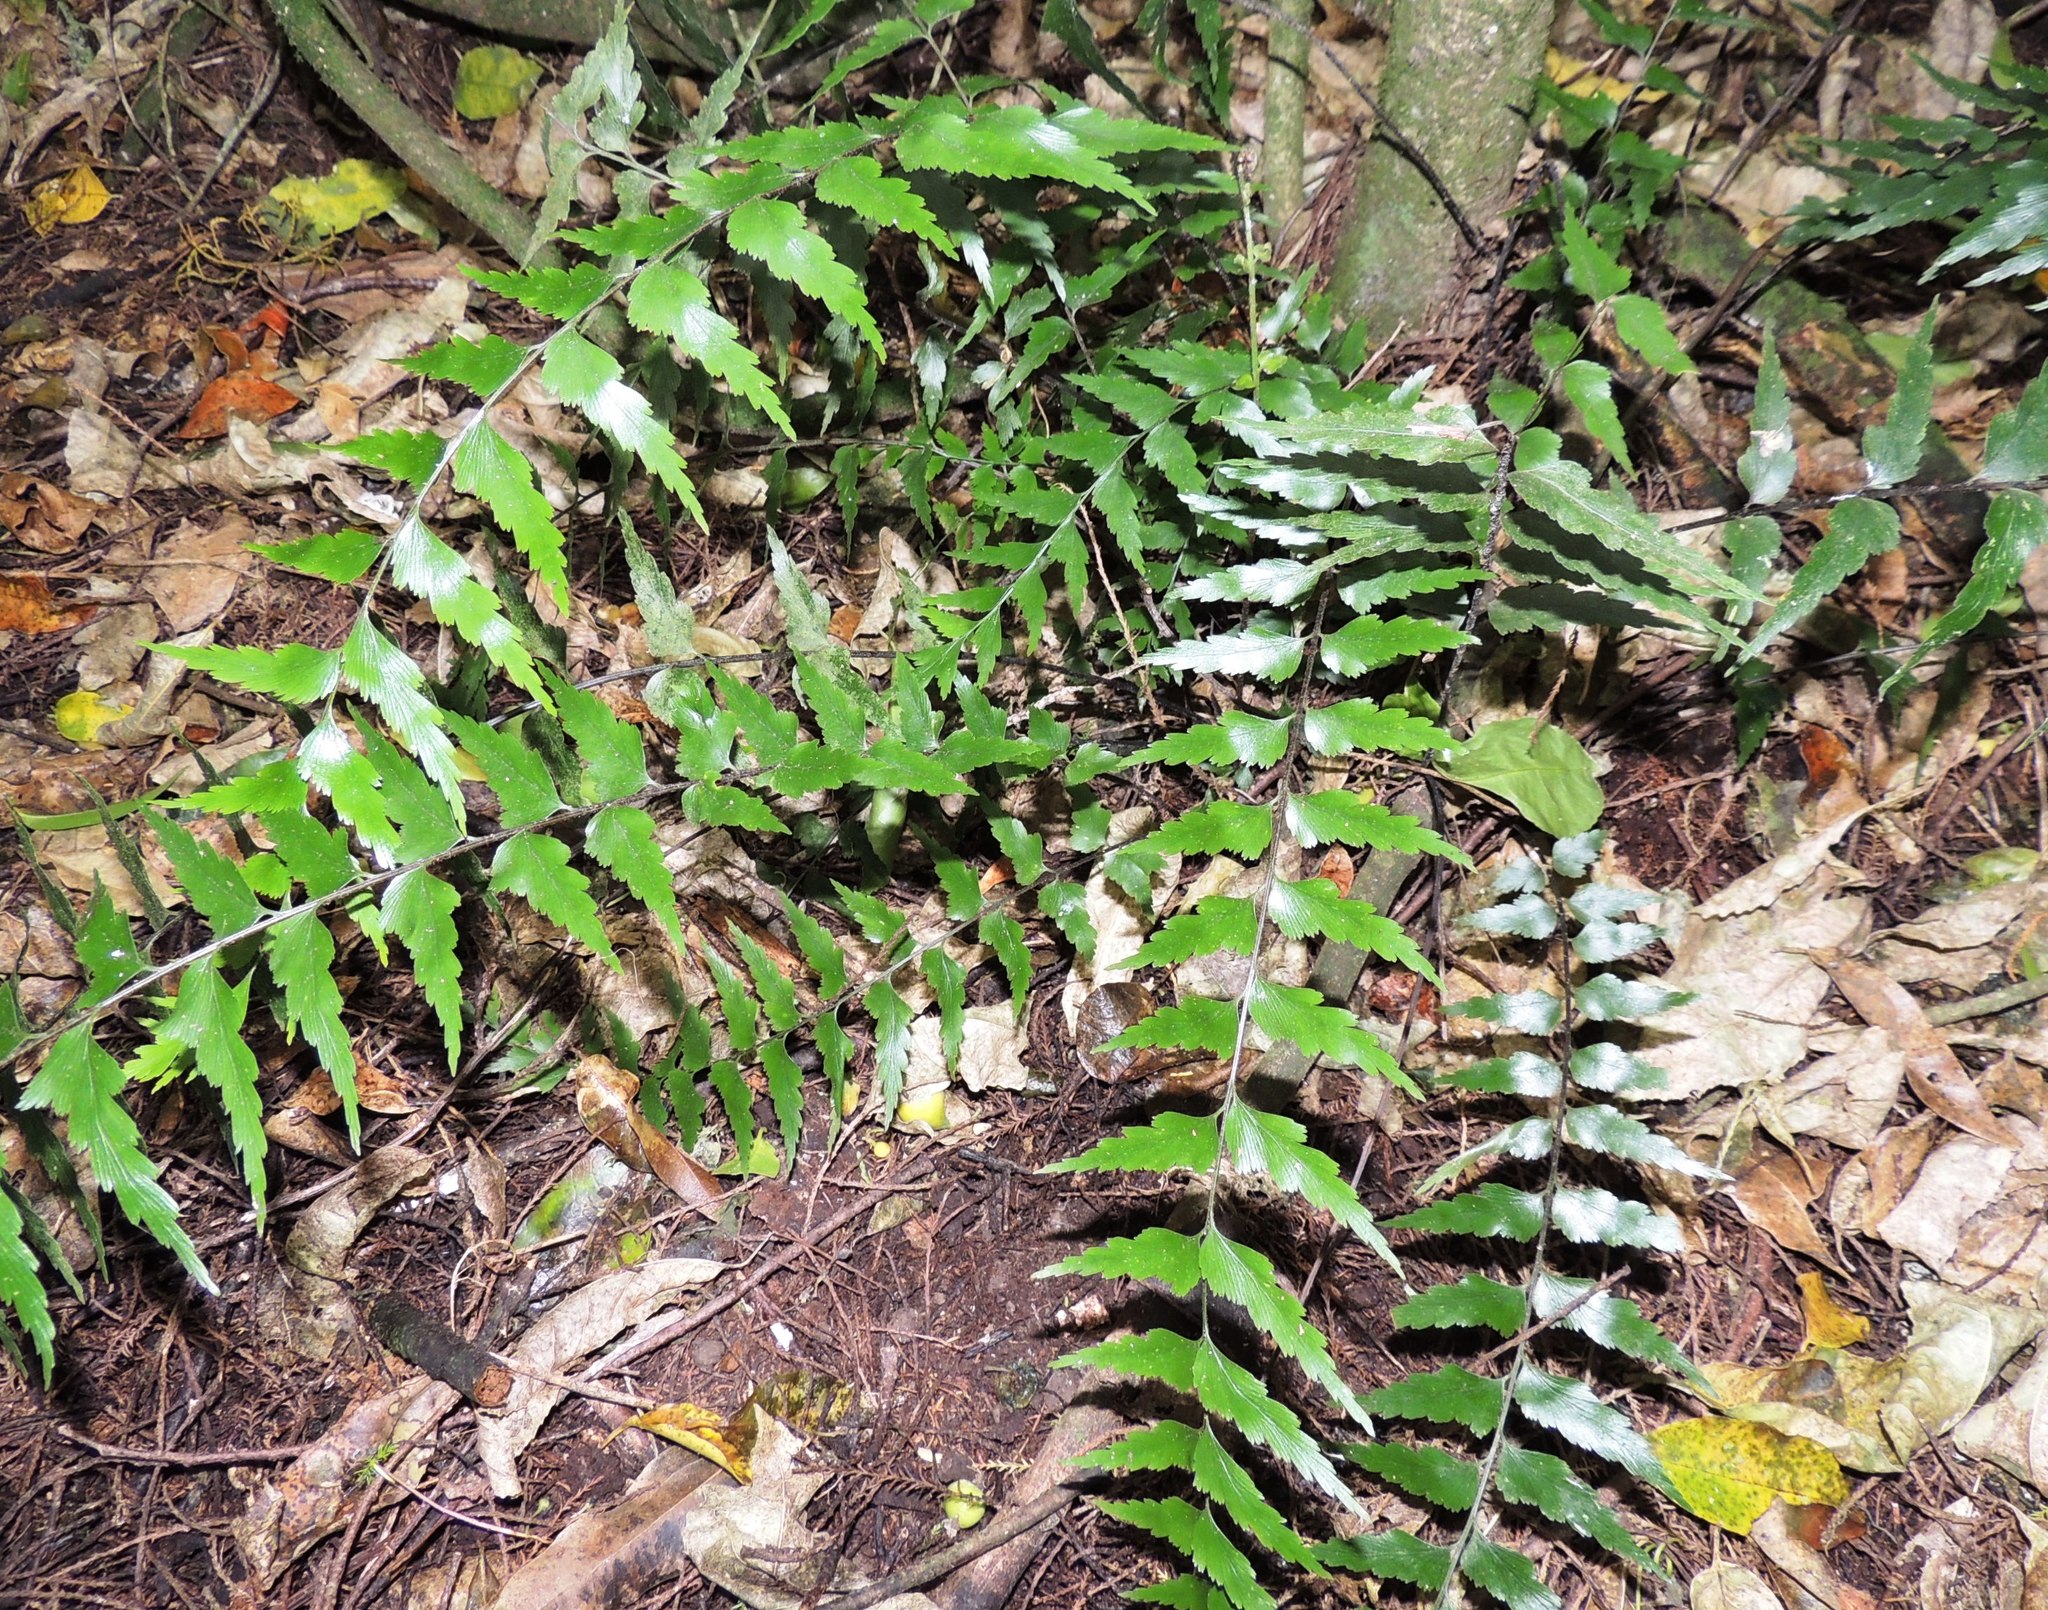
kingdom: Plantae
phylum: Tracheophyta
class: Polypodiopsida
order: Polypodiales
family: Aspleniaceae
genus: Asplenium
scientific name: Asplenium polyodon
